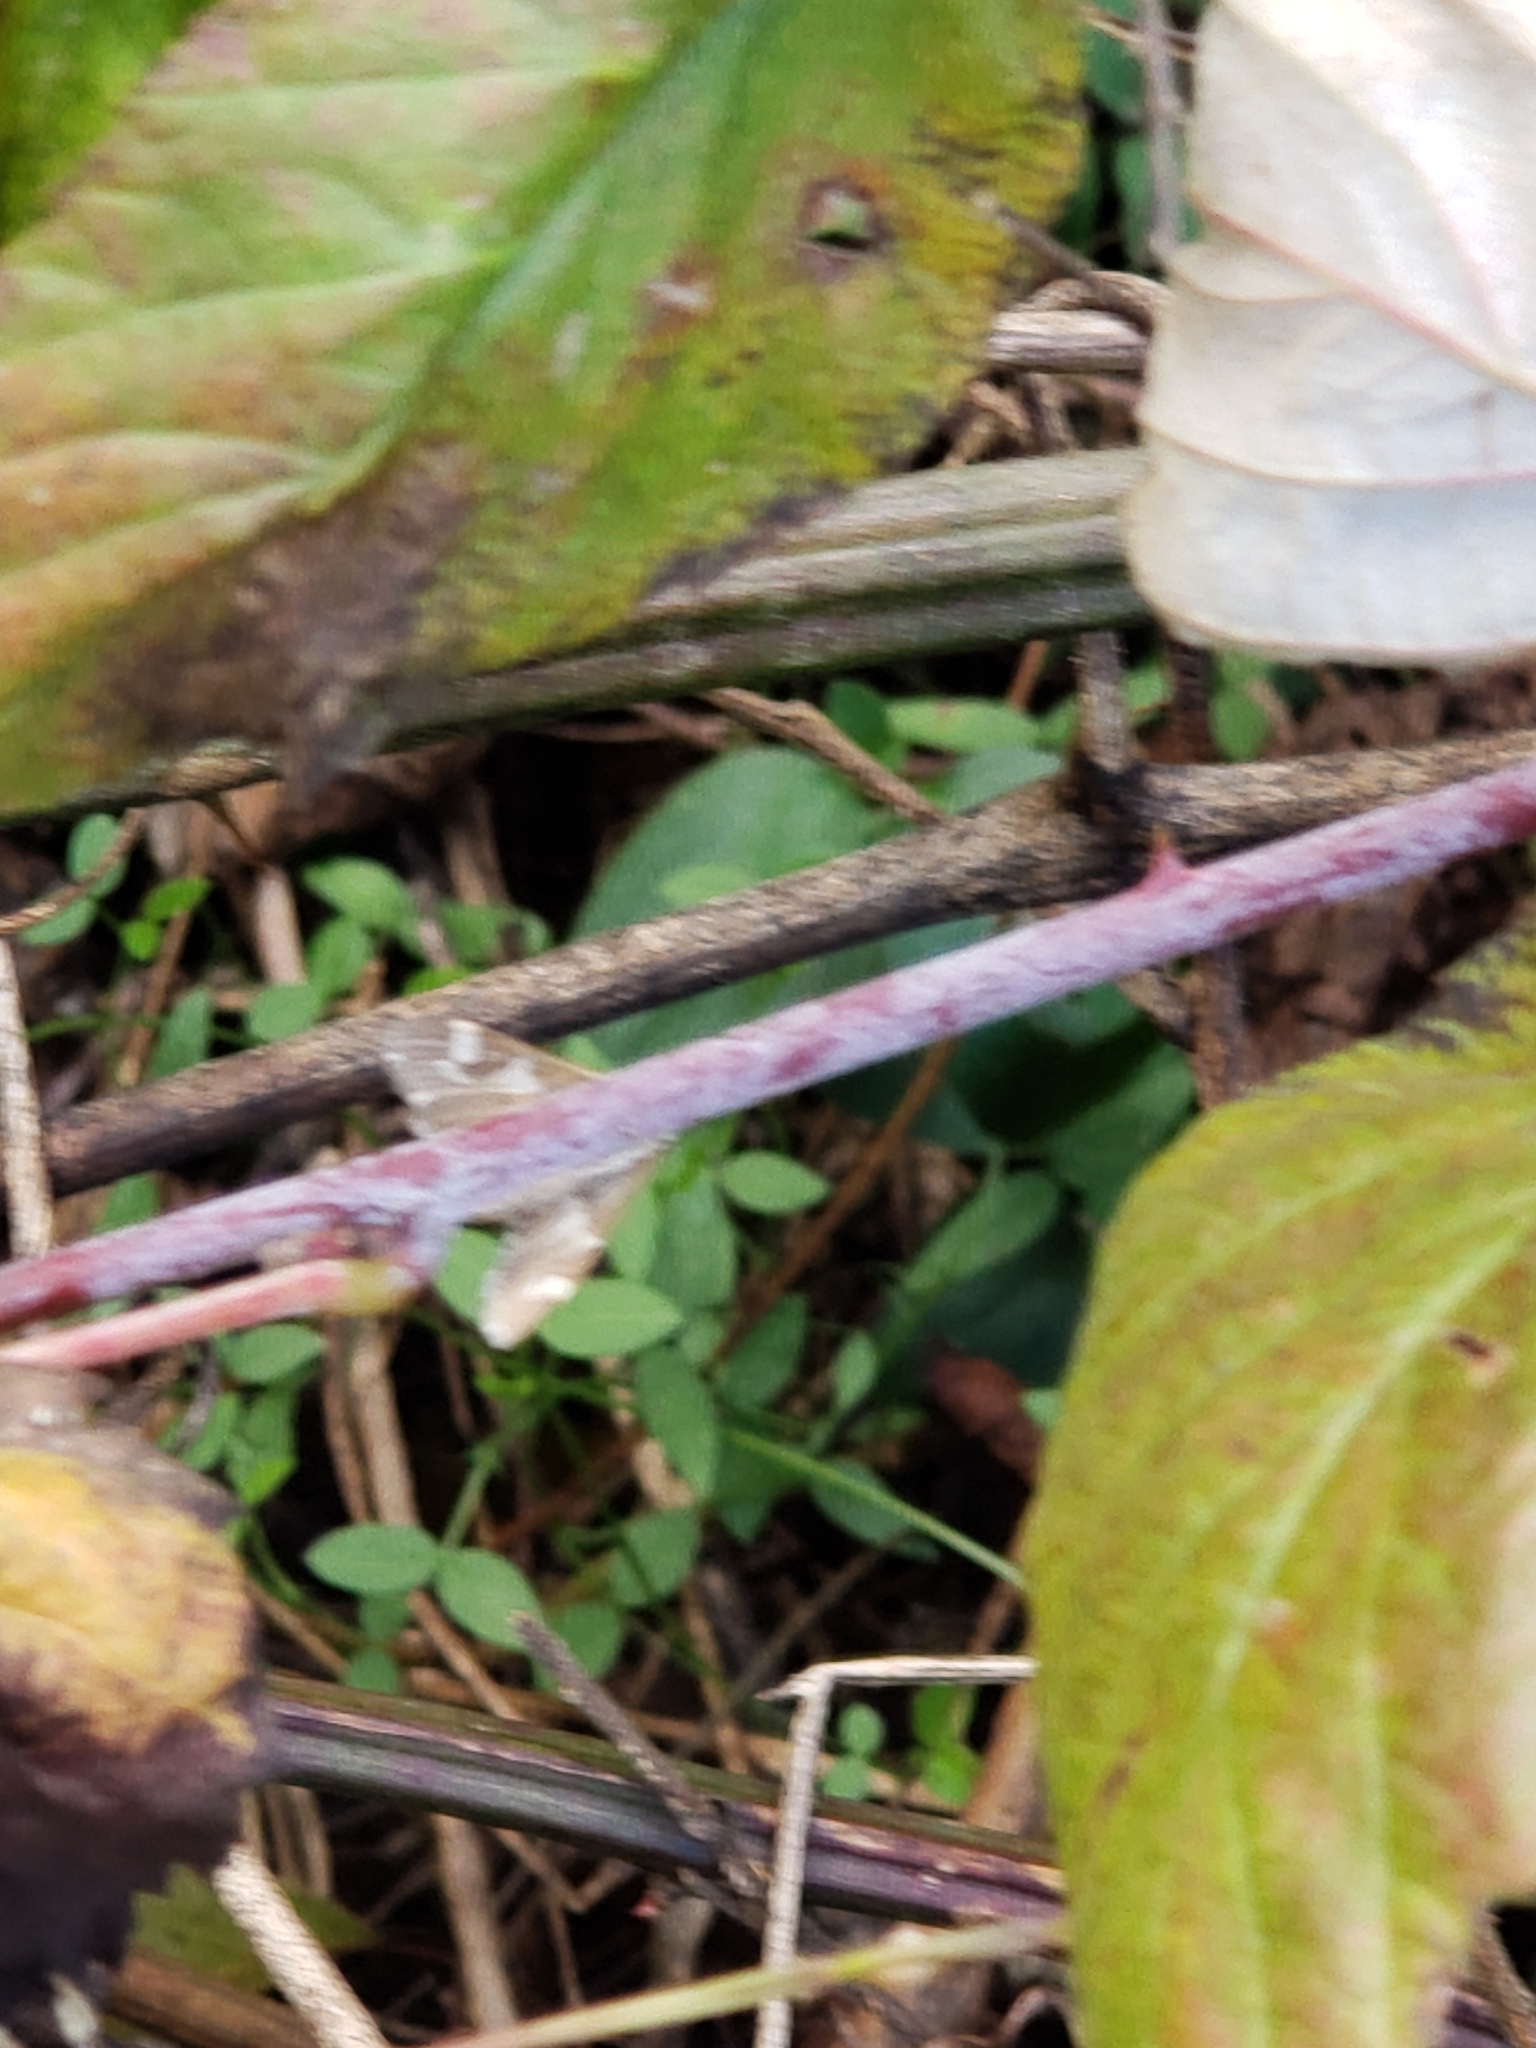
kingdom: Animalia
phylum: Arthropoda
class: Insecta
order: Lepidoptera
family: Crambidae
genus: Spoladea
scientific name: Spoladea recurvalis
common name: Beet webworm moth
